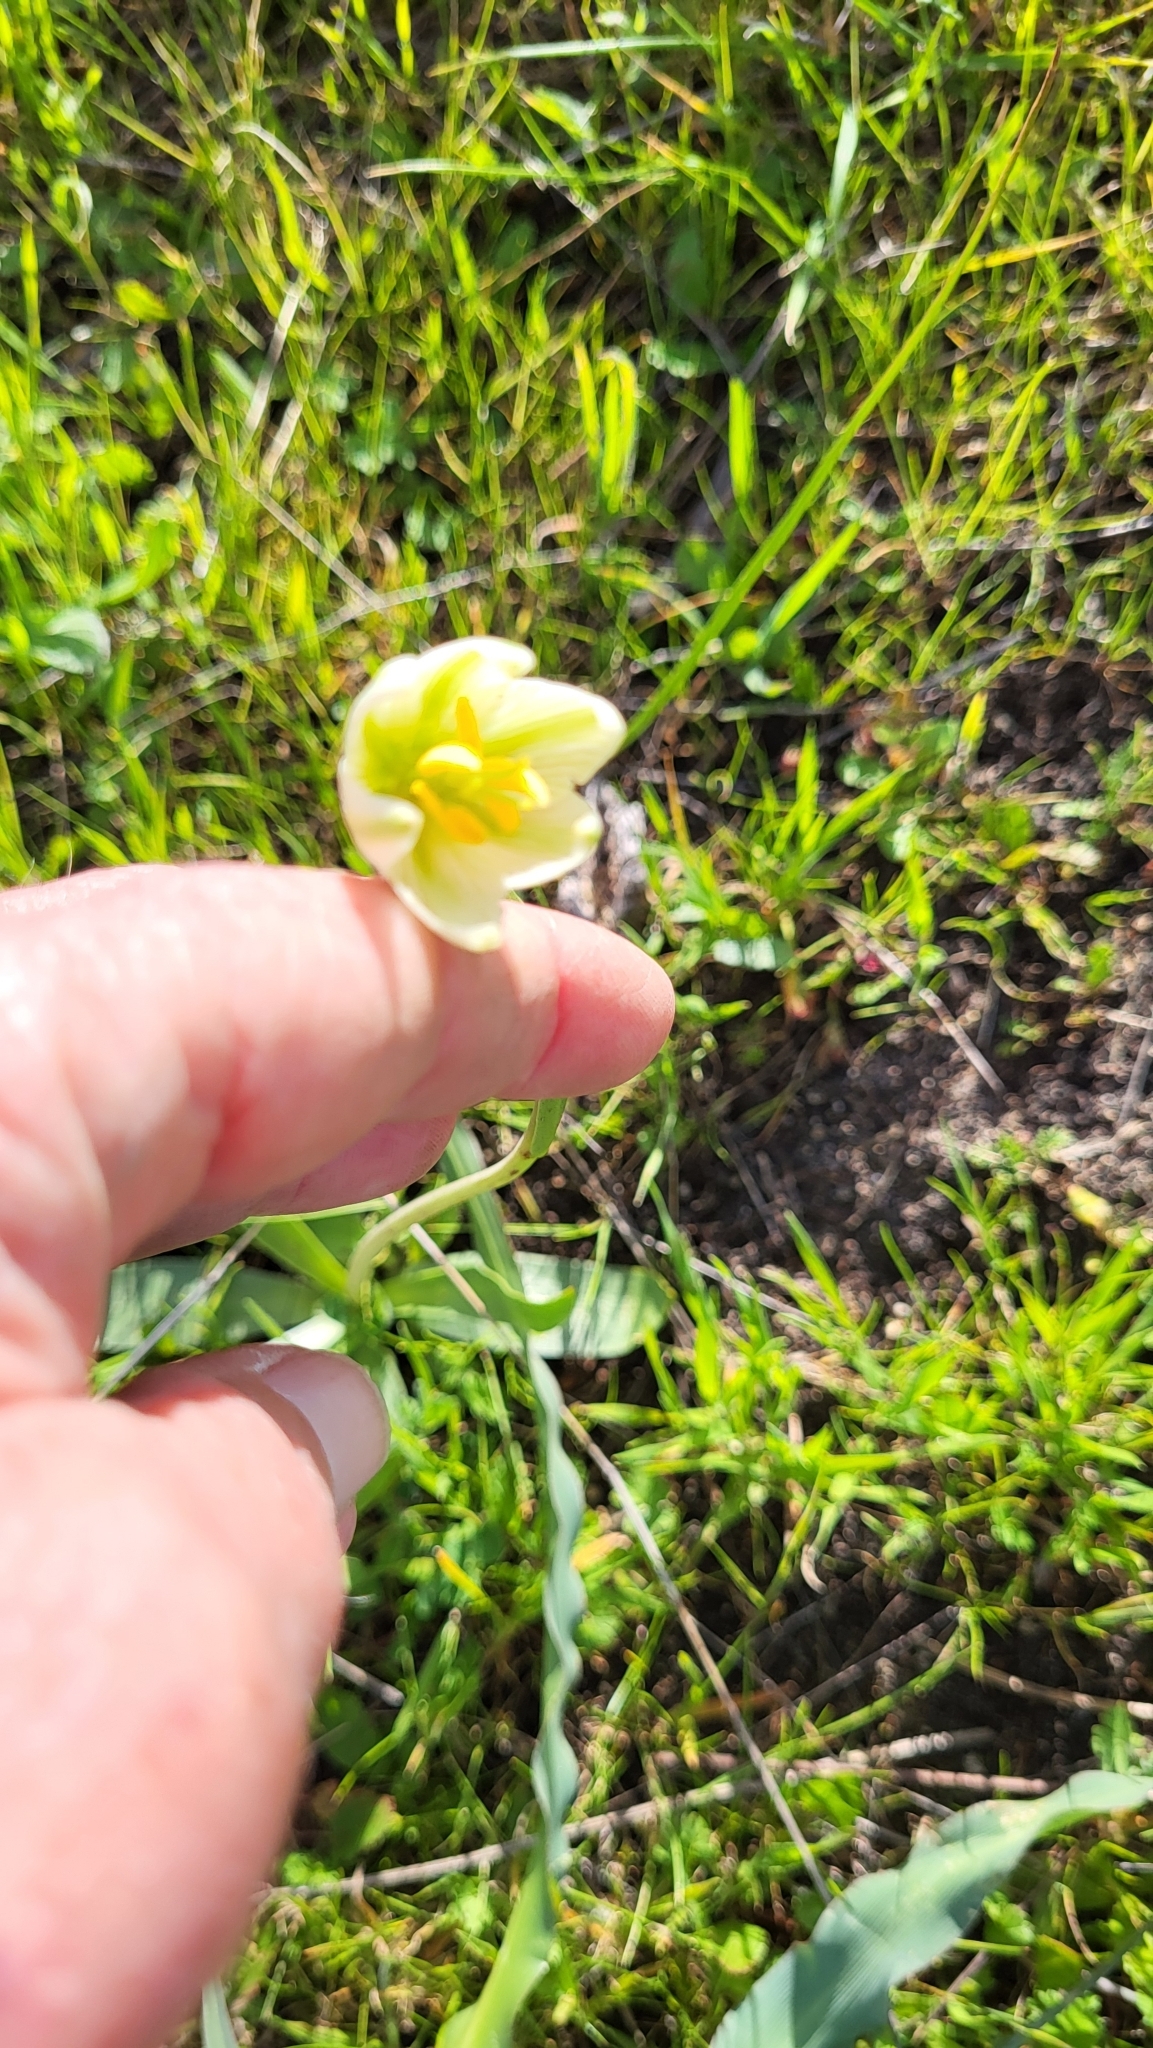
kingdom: Plantae
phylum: Tracheophyta
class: Liliopsida
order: Liliales
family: Liliaceae
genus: Fritillaria
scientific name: Fritillaria liliacea
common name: Fragrant fritillary
